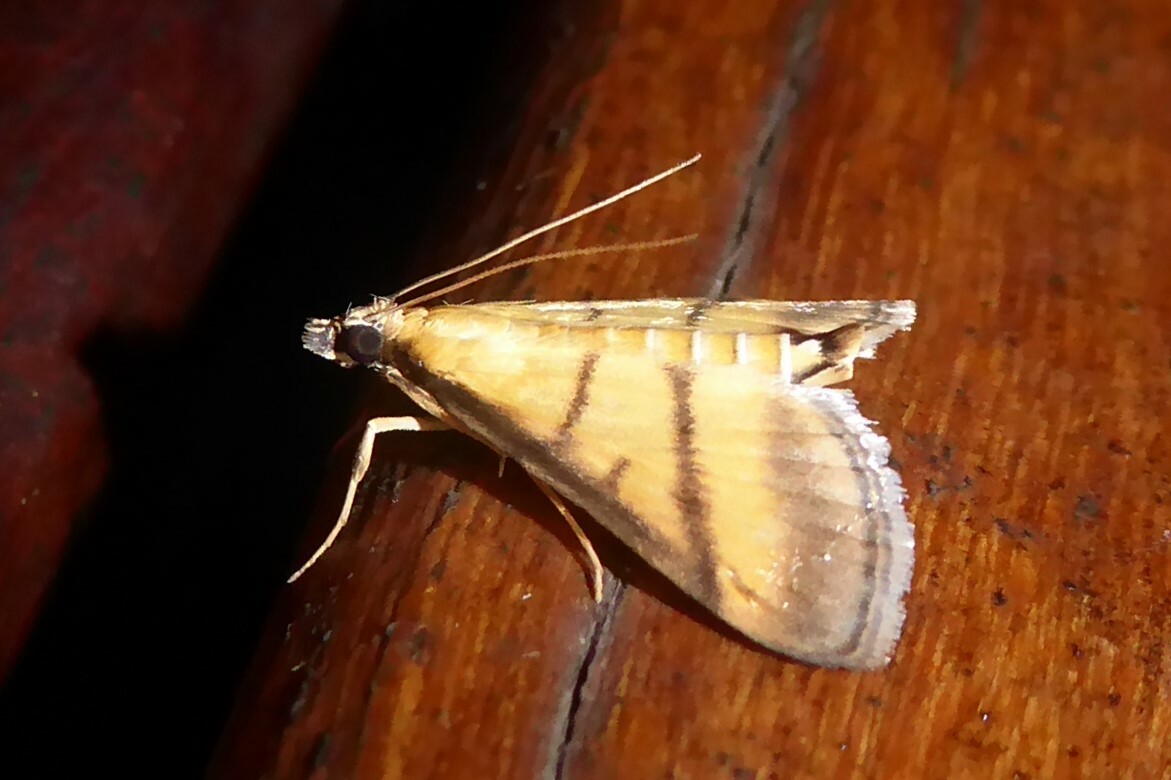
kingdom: Animalia
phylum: Arthropoda
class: Insecta
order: Lepidoptera
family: Crambidae
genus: Cnaphalocrocis
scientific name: Cnaphalocrocis medinalis
